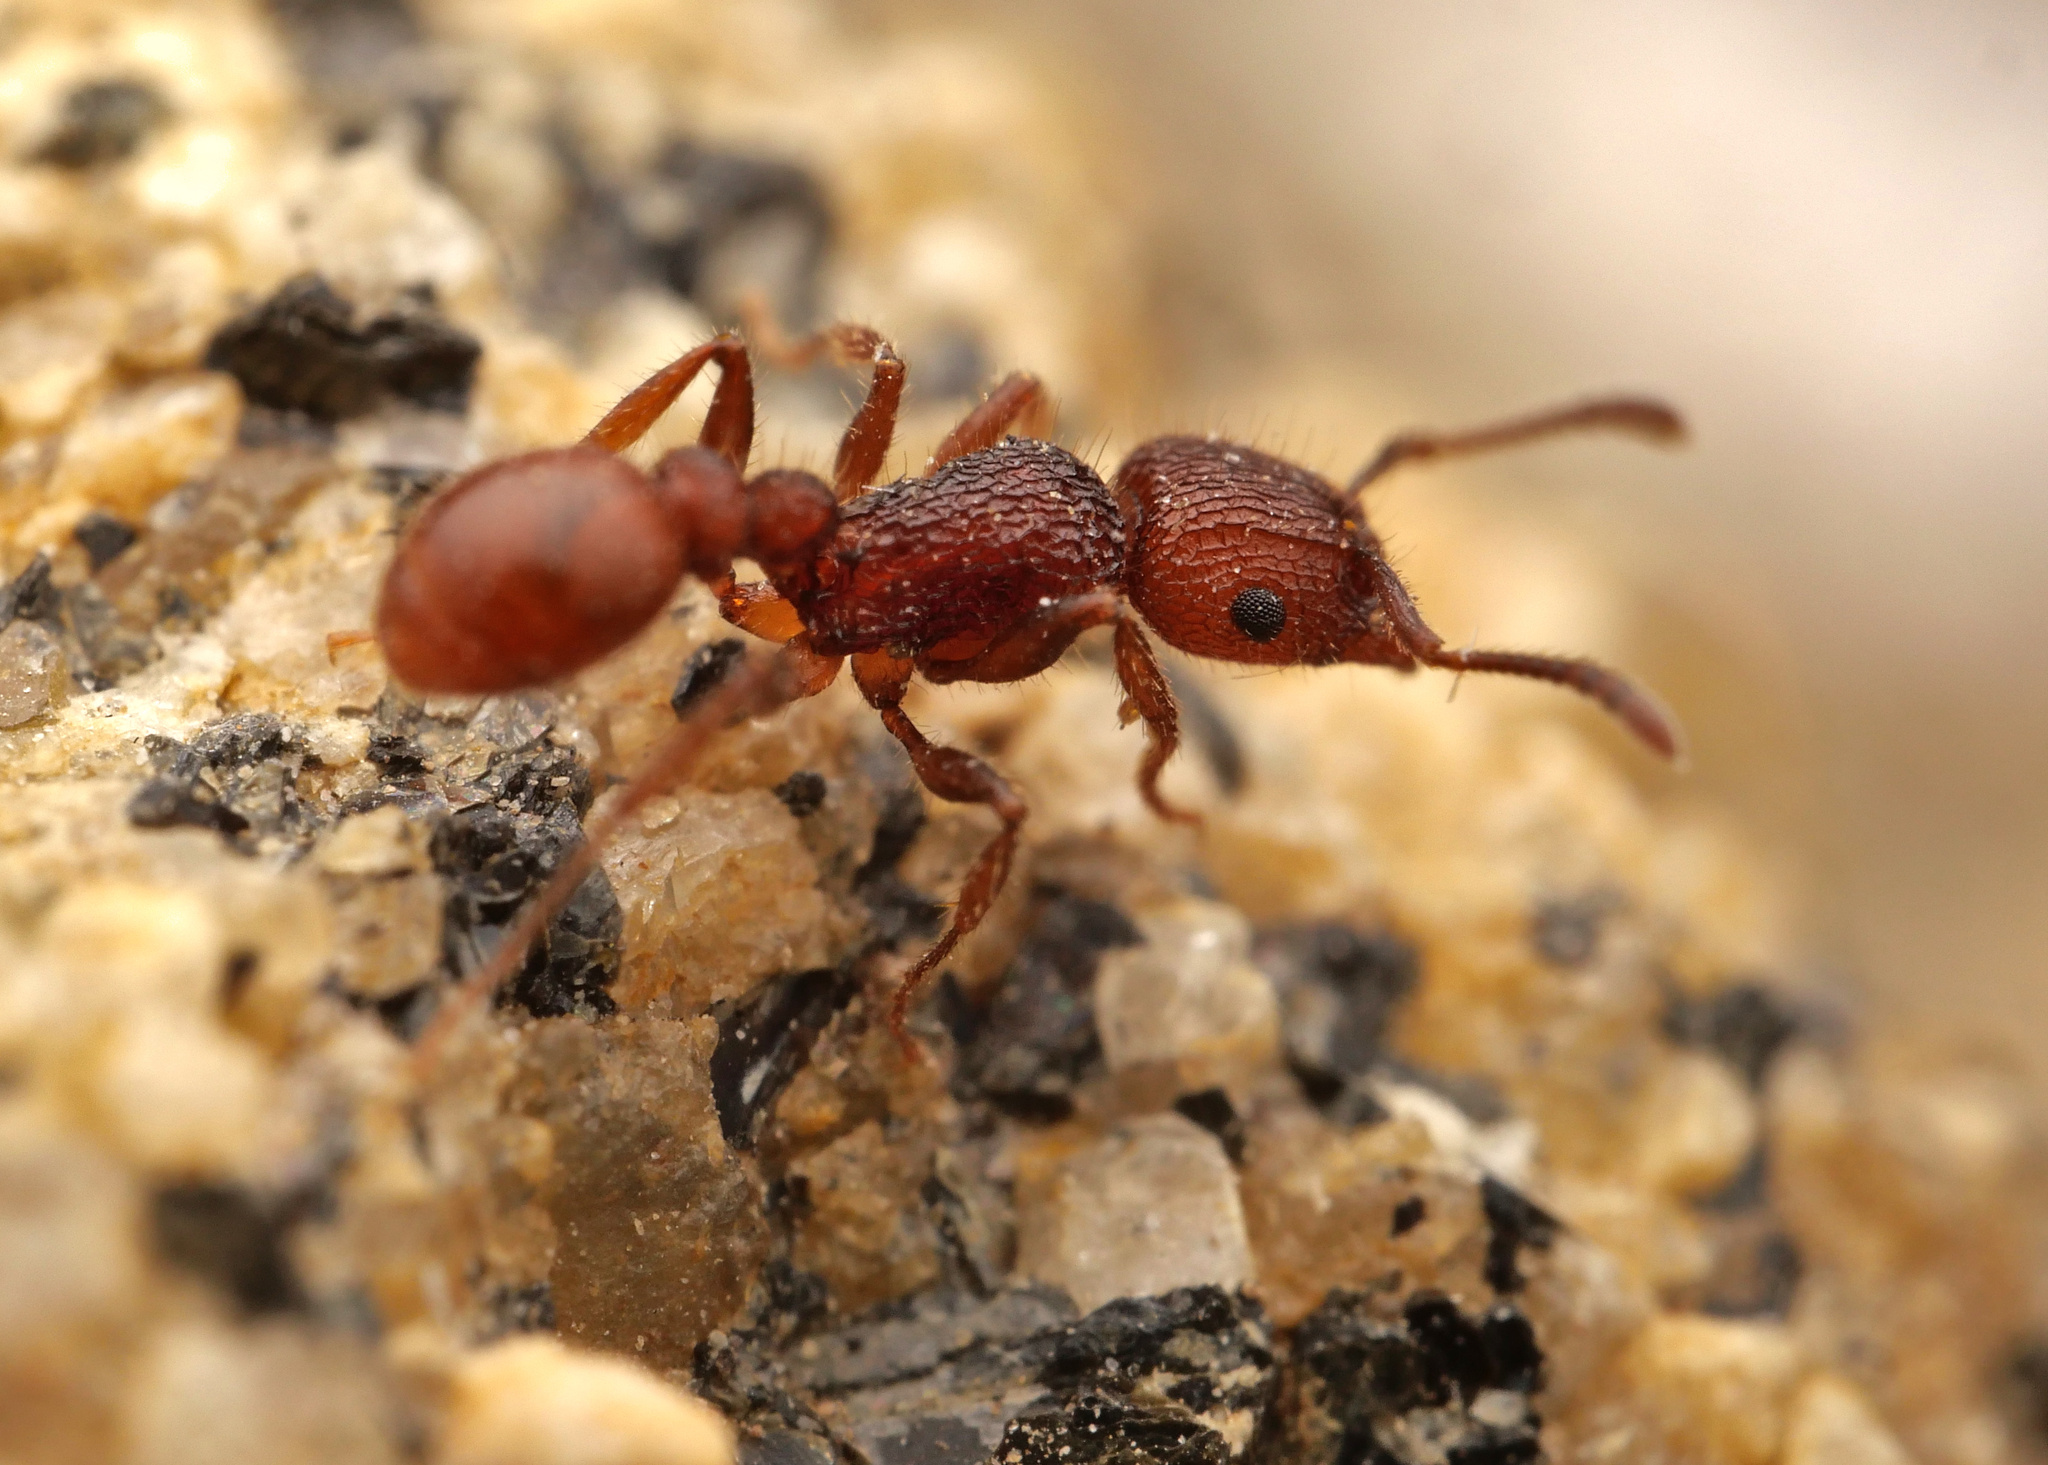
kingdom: Animalia
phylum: Arthropoda
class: Insecta
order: Hymenoptera
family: Formicidae
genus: Tetramorium
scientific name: Tetramorium spinosum
